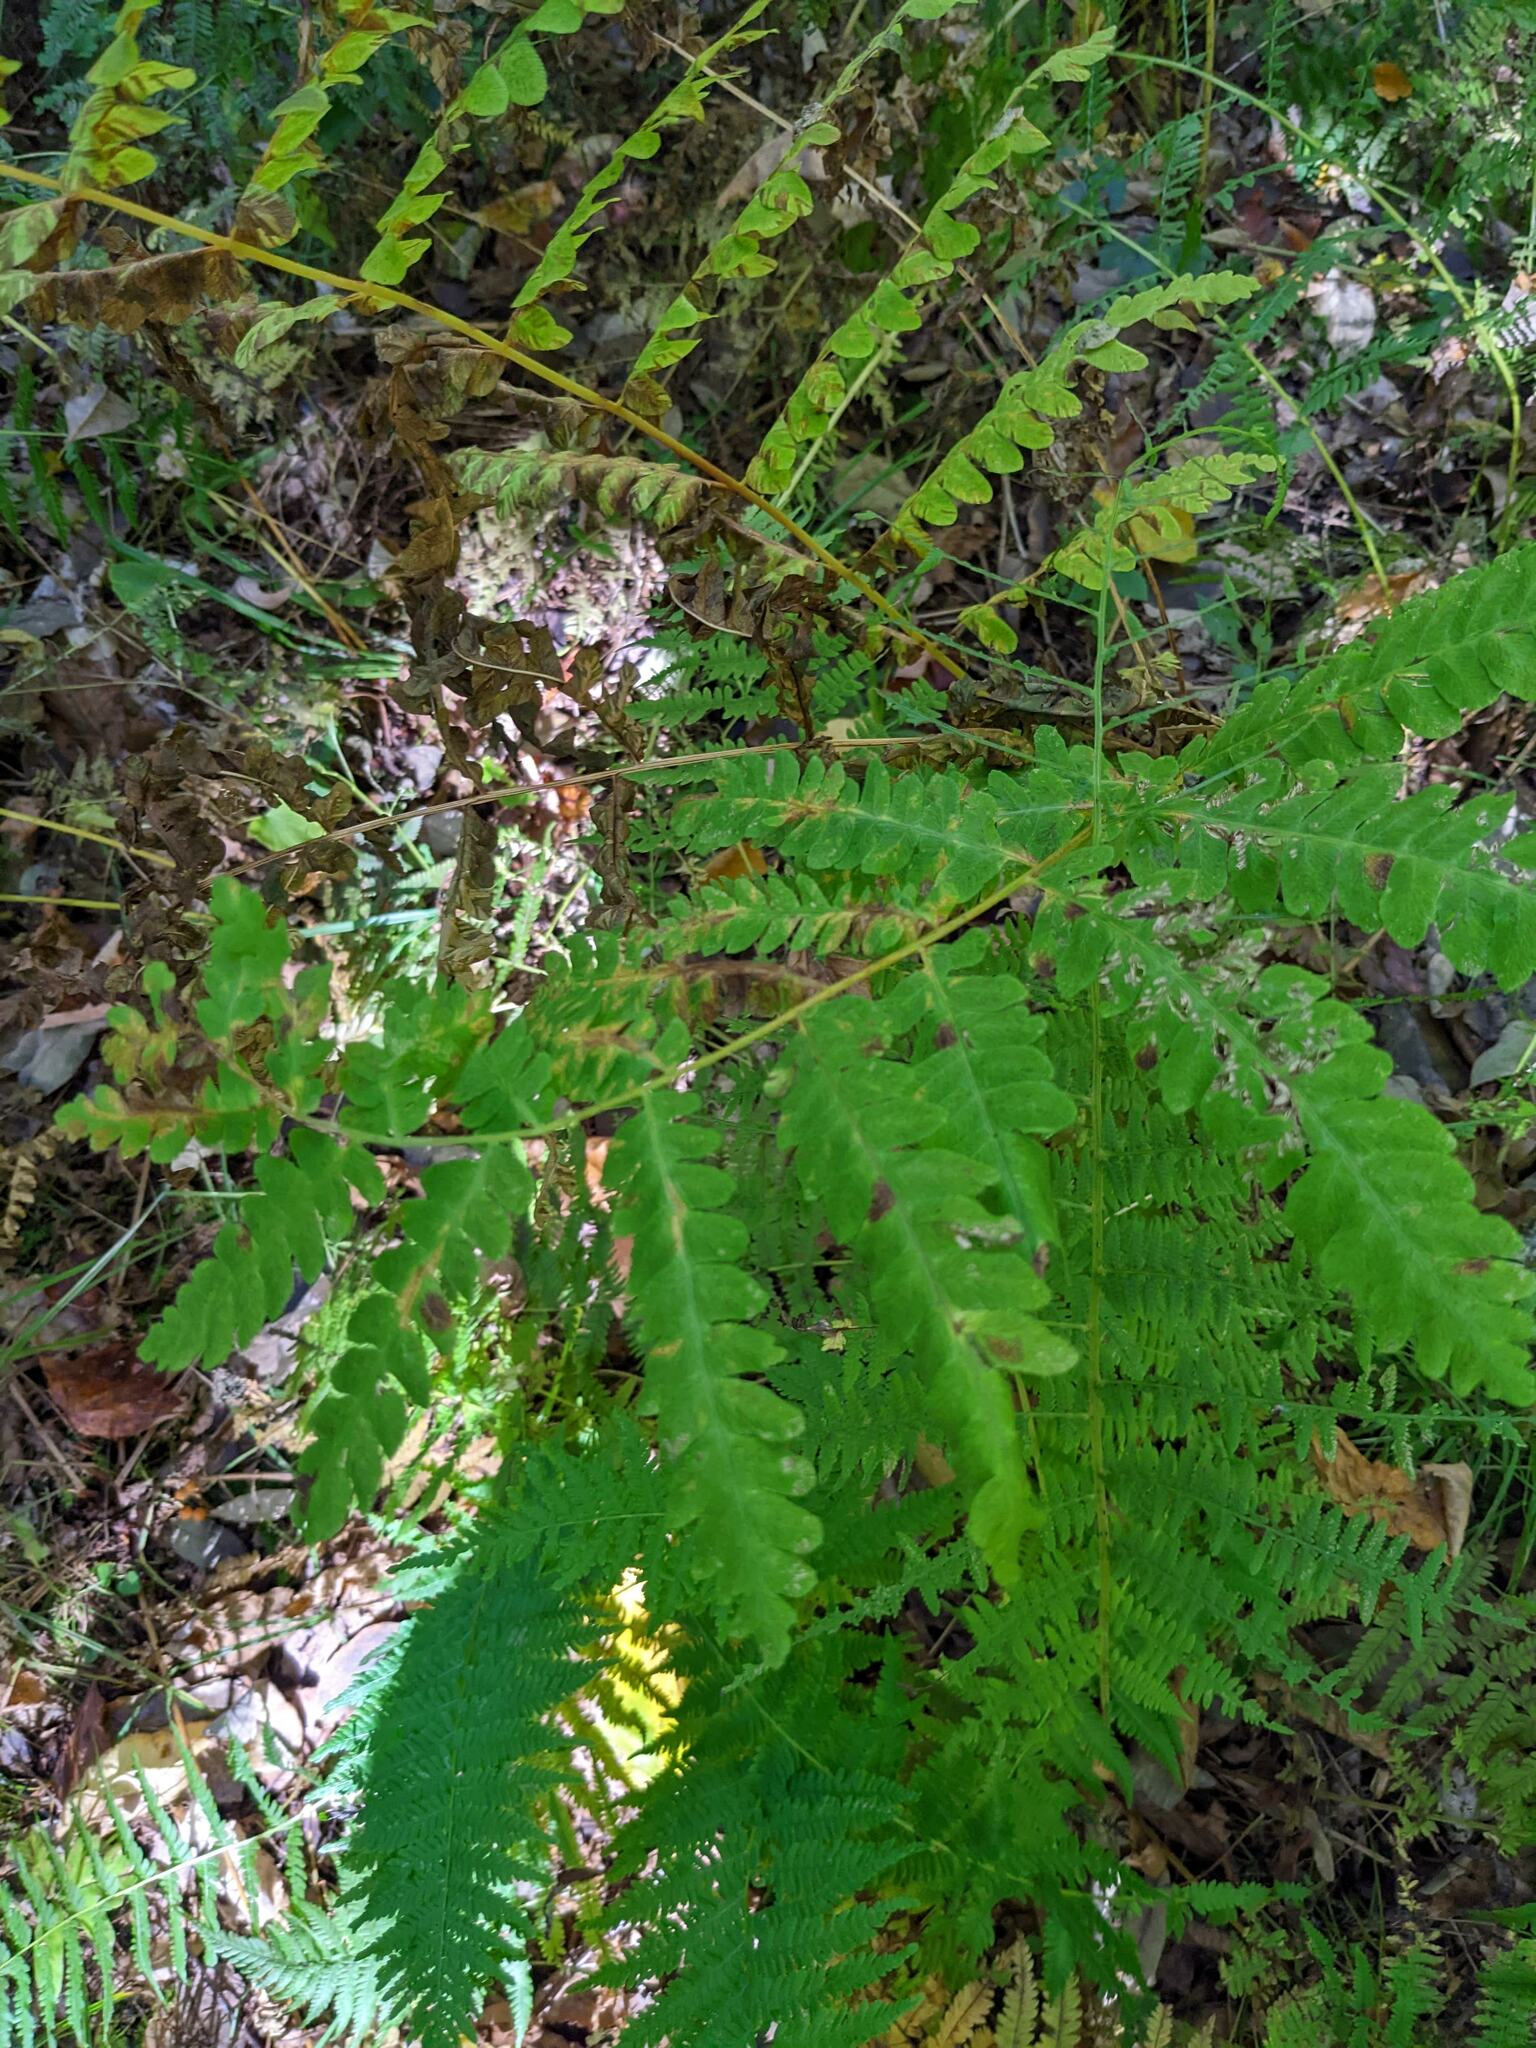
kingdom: Plantae
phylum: Tracheophyta
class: Polypodiopsida
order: Osmundales
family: Osmundaceae
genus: Claytosmunda
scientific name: Claytosmunda claytoniana
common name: Clayton's fern
